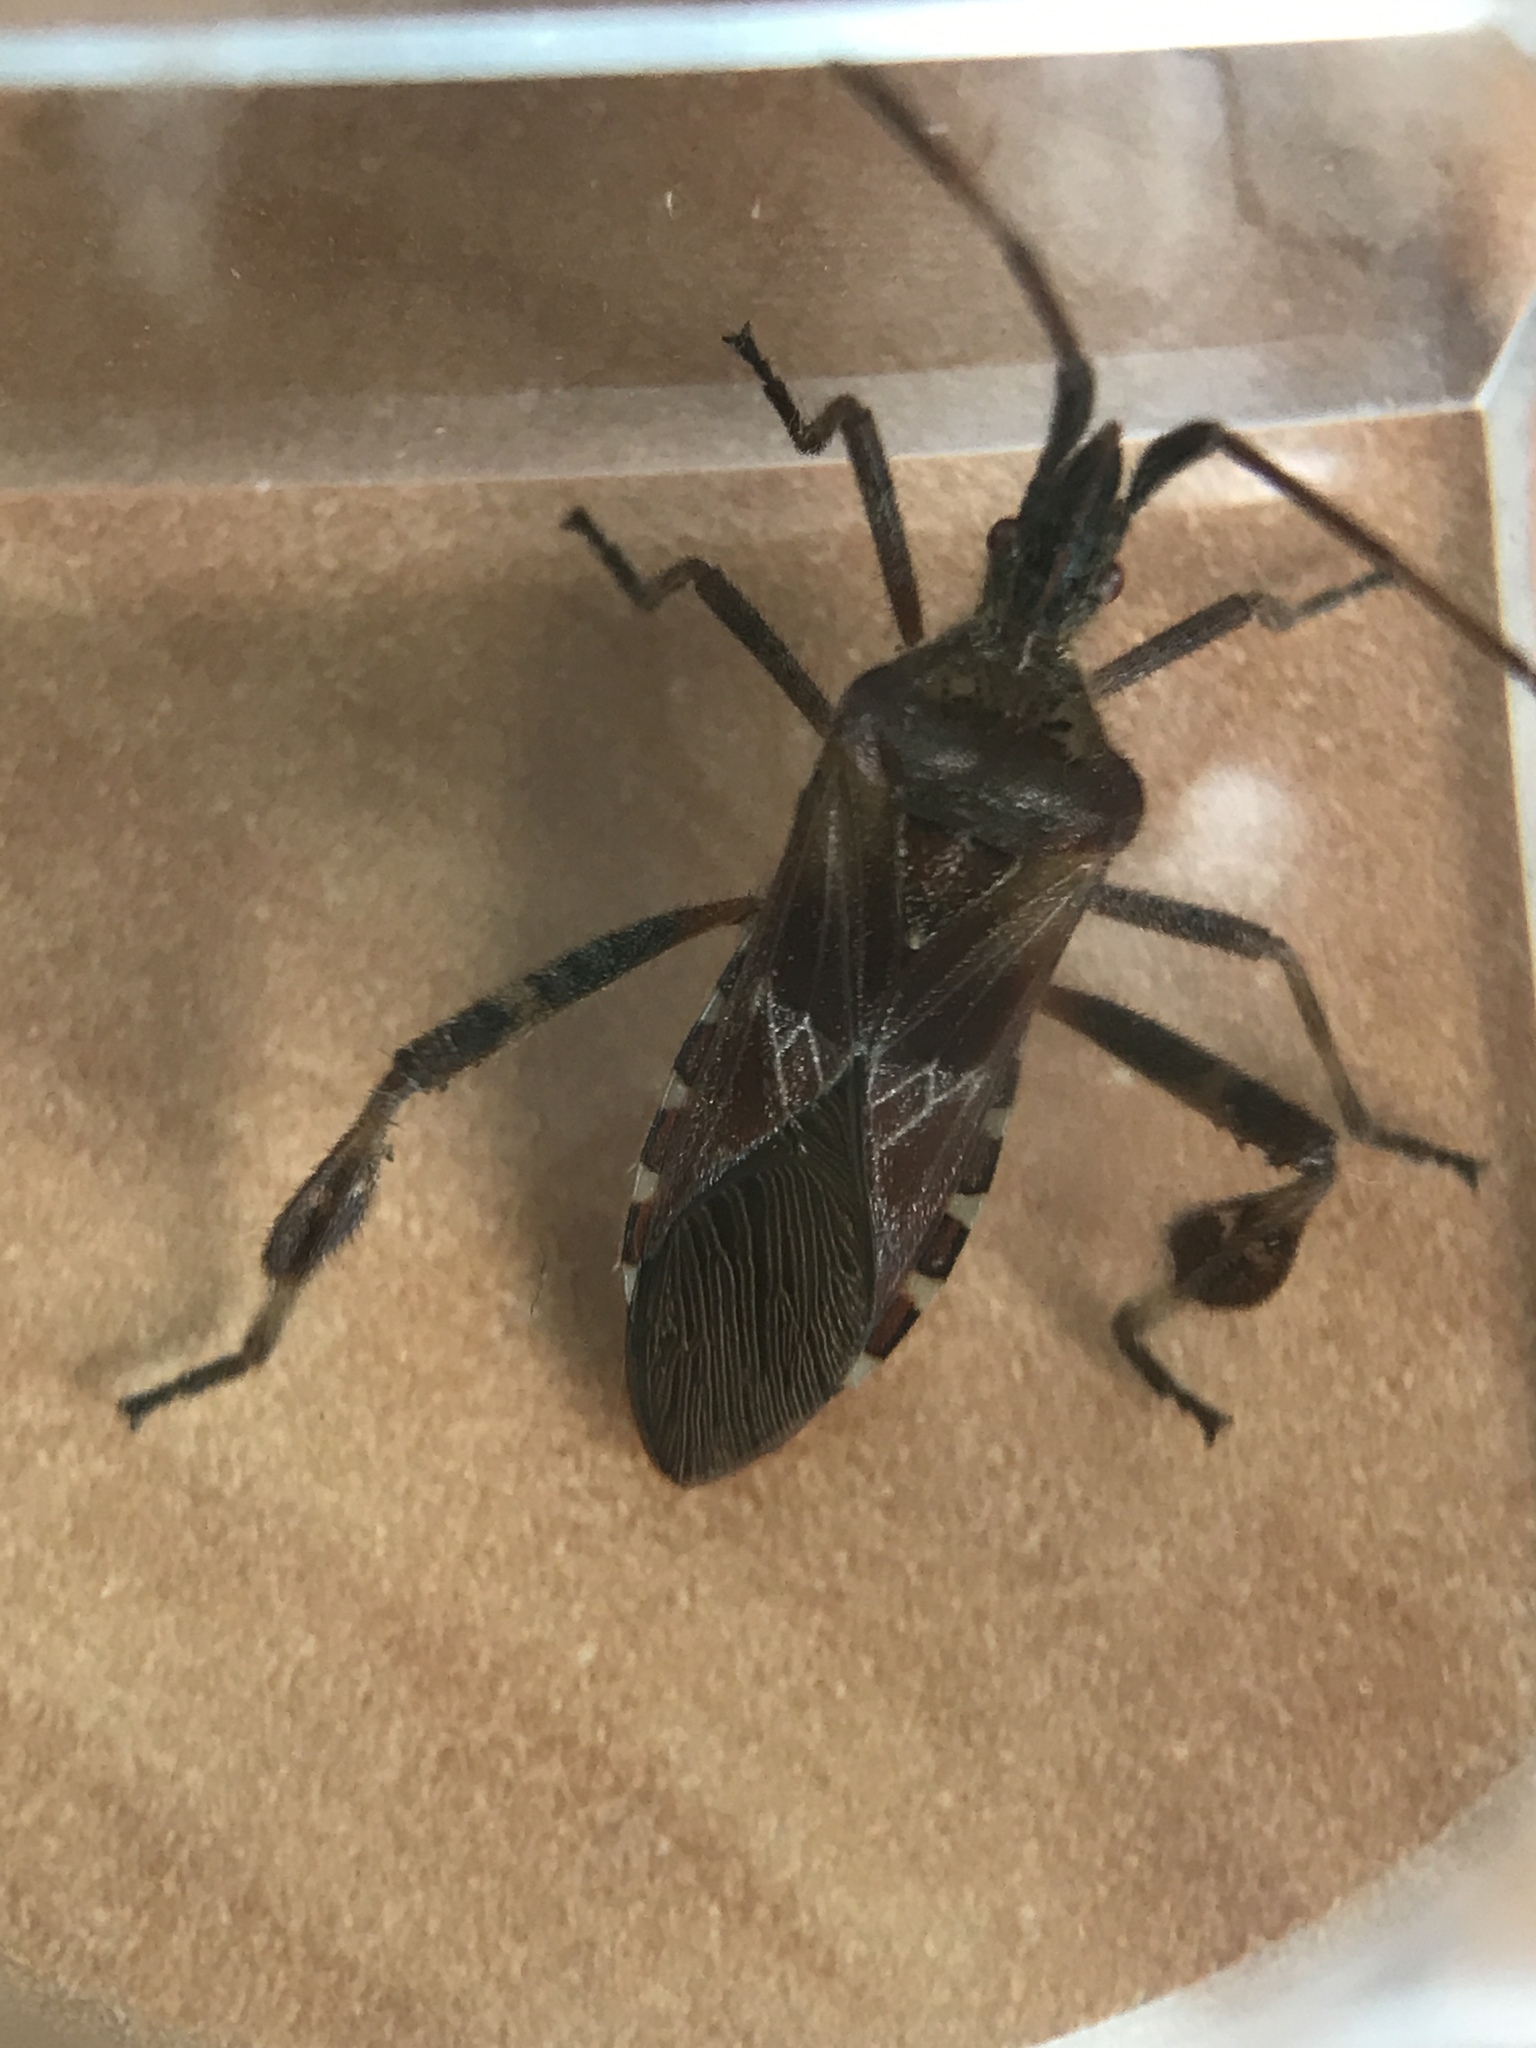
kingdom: Animalia
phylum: Arthropoda
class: Insecta
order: Hemiptera
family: Coreidae
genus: Leptoglossus
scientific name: Leptoglossus occidentalis
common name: Western conifer-seed bug
